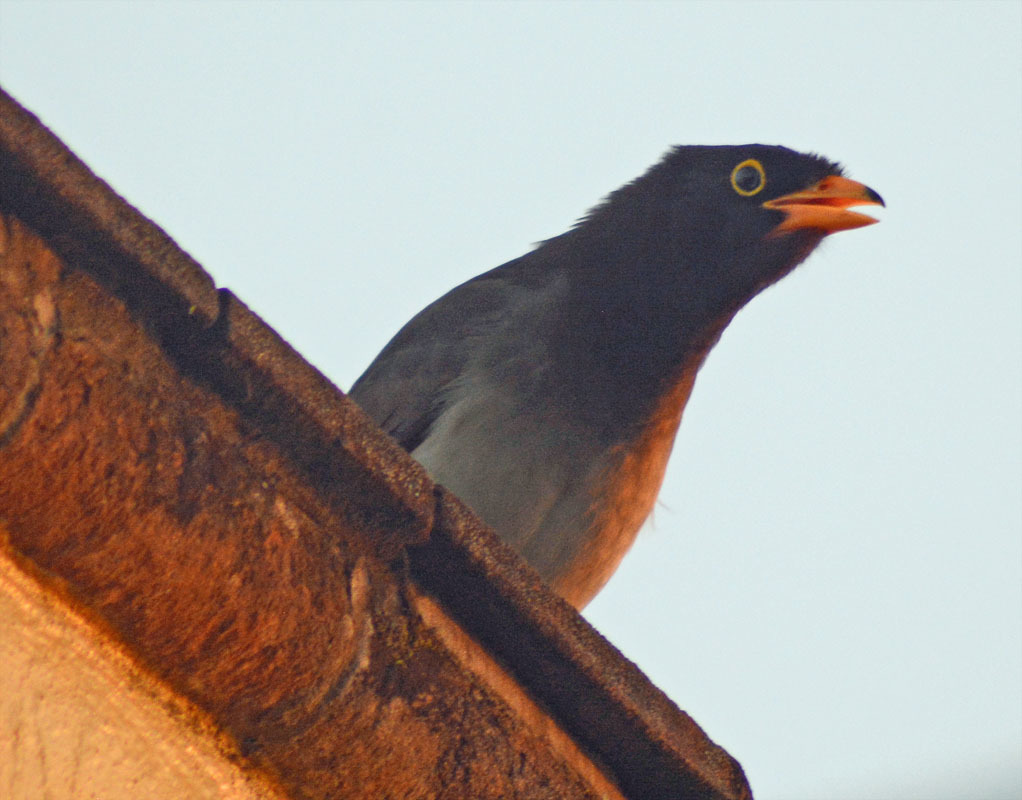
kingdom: Animalia
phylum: Chordata
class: Aves
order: Passeriformes
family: Corvidae
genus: Psilorhinus
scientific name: Psilorhinus morio
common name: Brown jay
